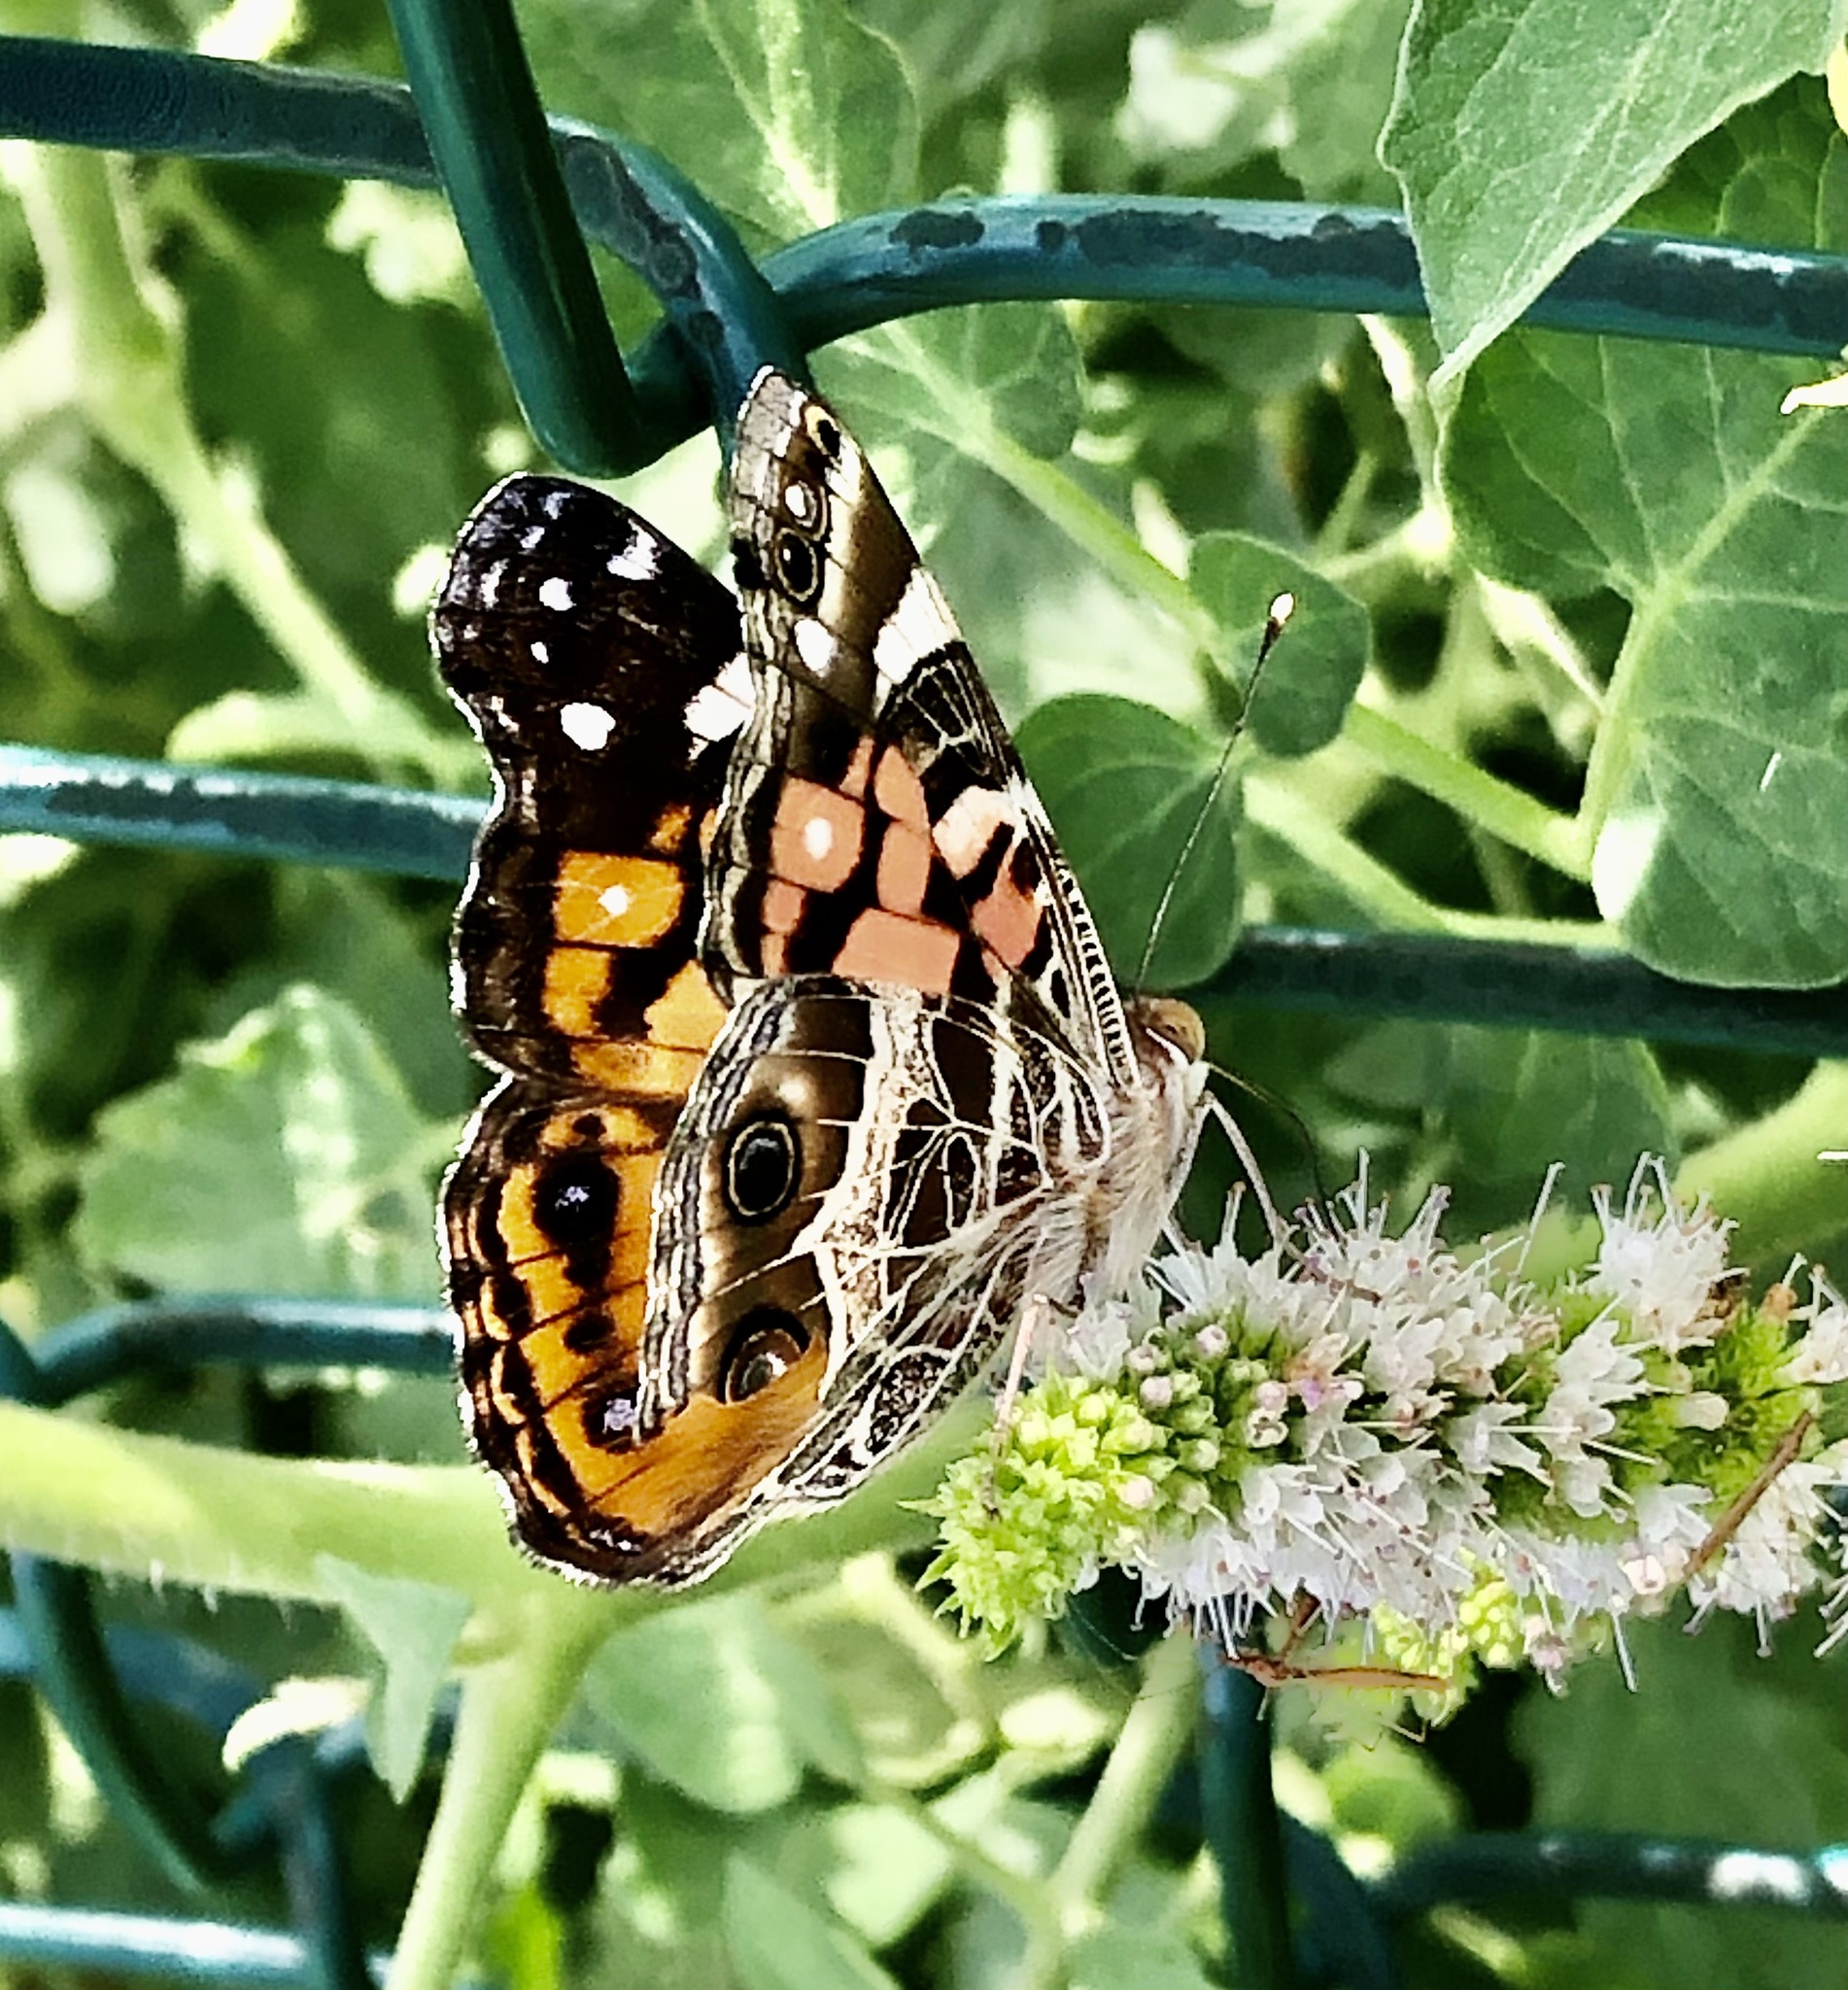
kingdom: Animalia
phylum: Arthropoda
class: Insecta
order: Lepidoptera
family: Nymphalidae
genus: Vanessa
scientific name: Vanessa virginiensis
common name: American lady
